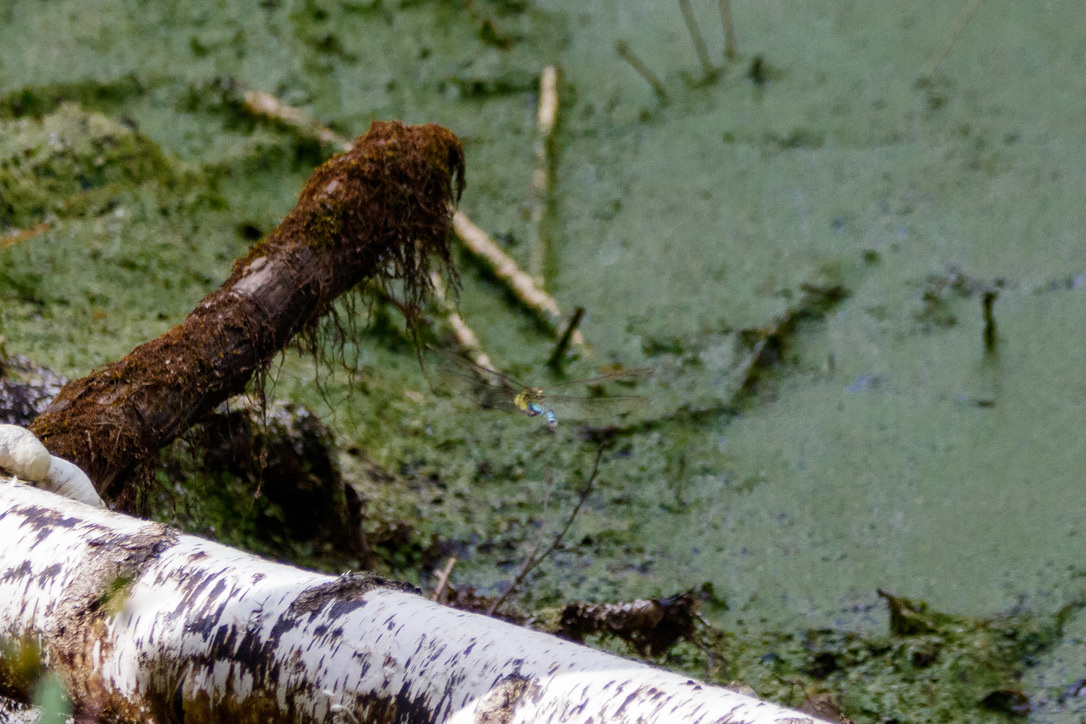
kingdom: Animalia
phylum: Arthropoda
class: Insecta
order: Odonata
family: Aeshnidae
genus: Aeshna
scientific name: Aeshna cyanea
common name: Southern hawker
